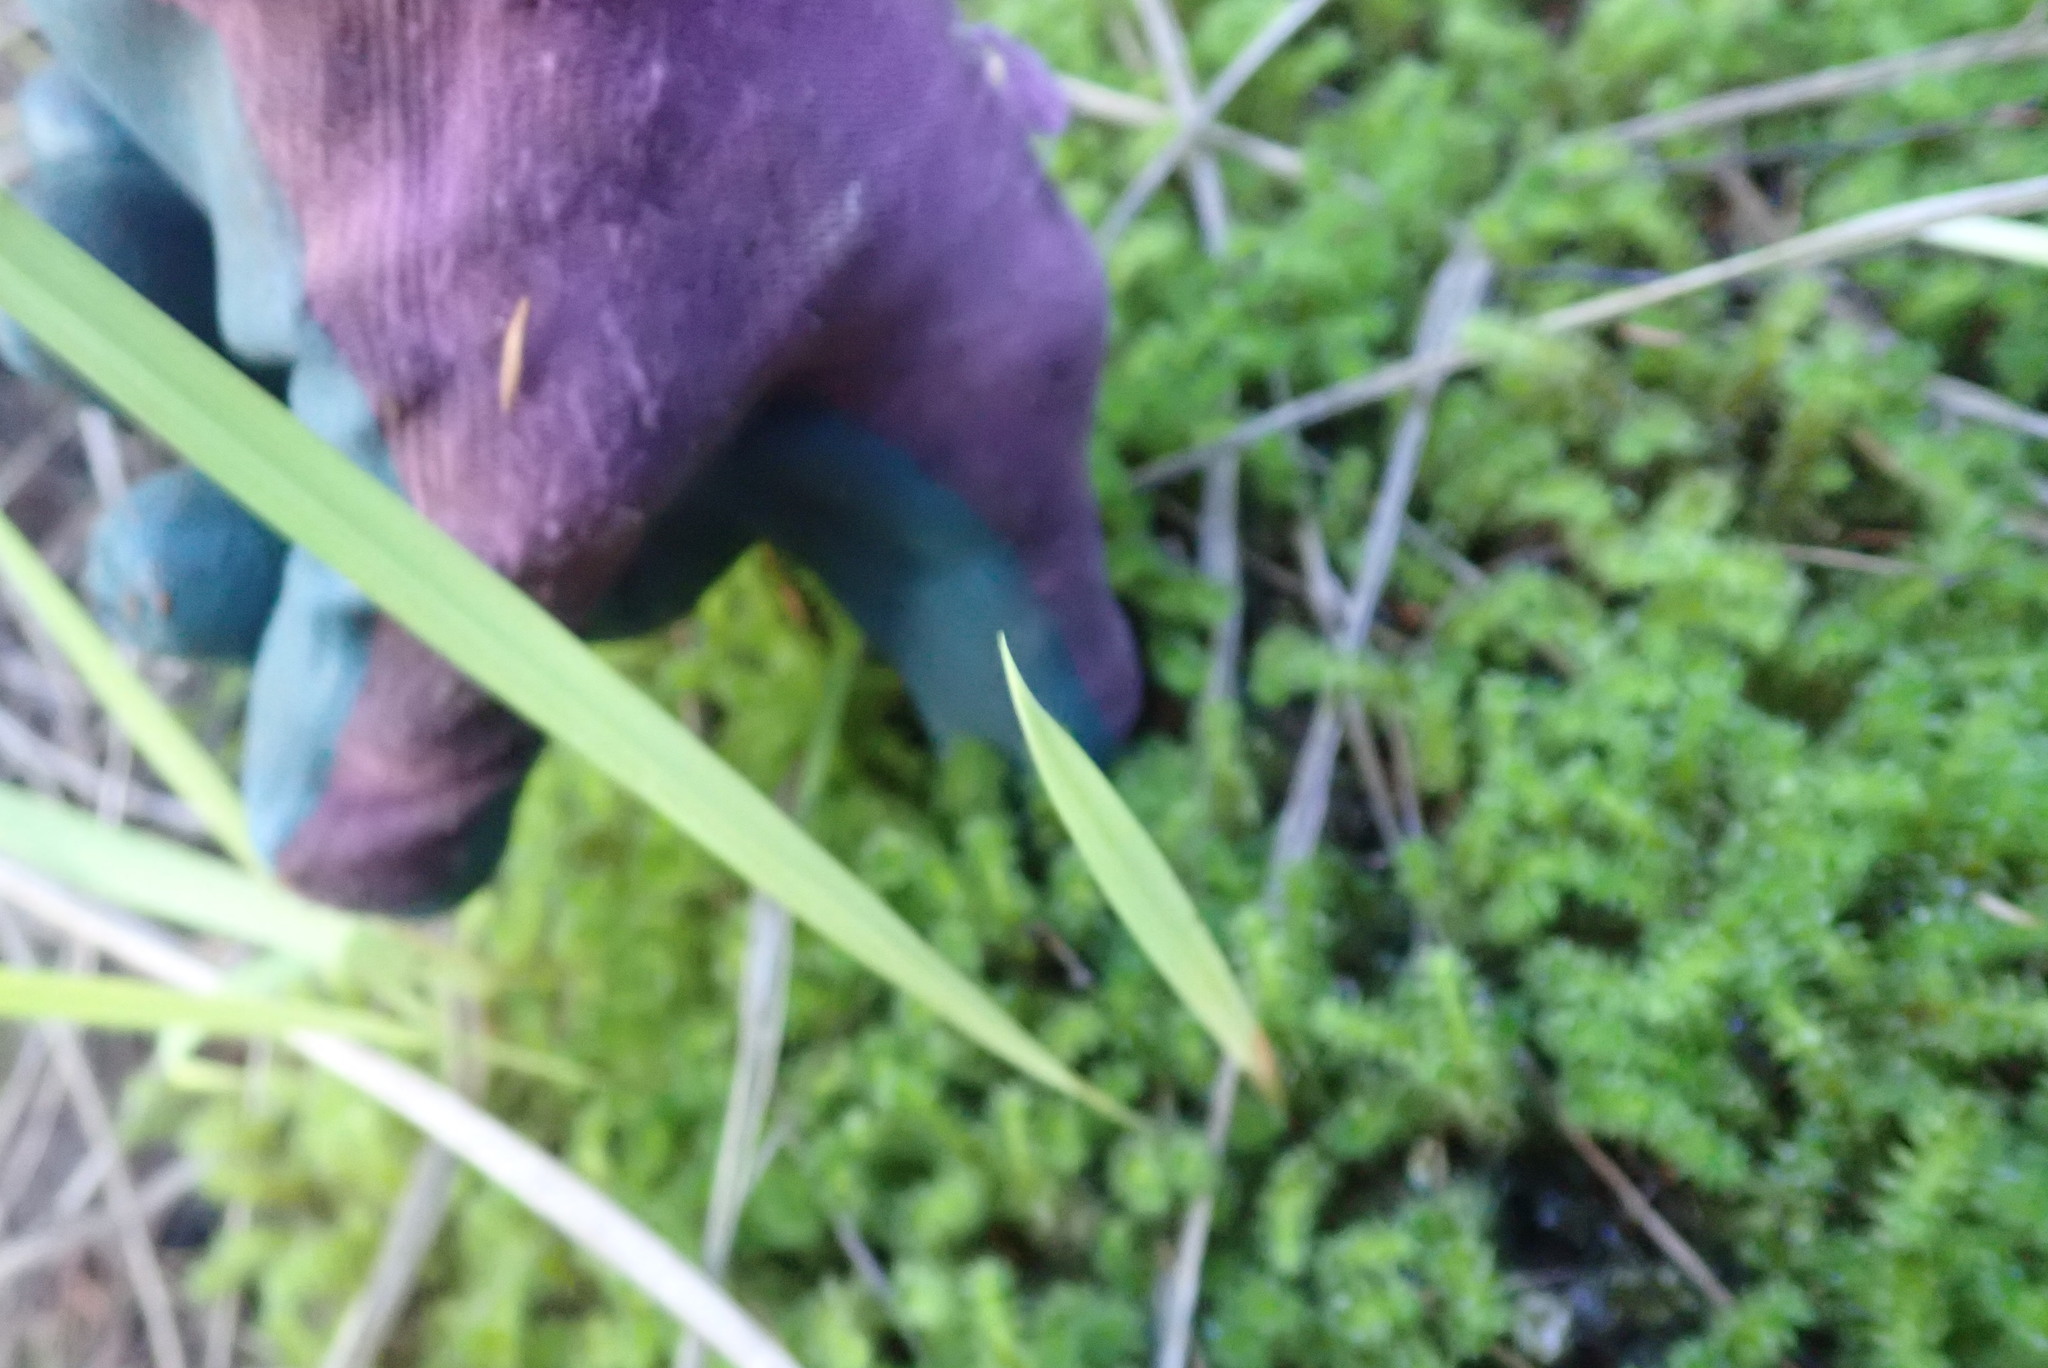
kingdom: Plantae
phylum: Bryophyta
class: Bryopsida
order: Ptychomniales
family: Ptychomniaceae
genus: Ptychomnion
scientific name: Ptychomnion aciculare
